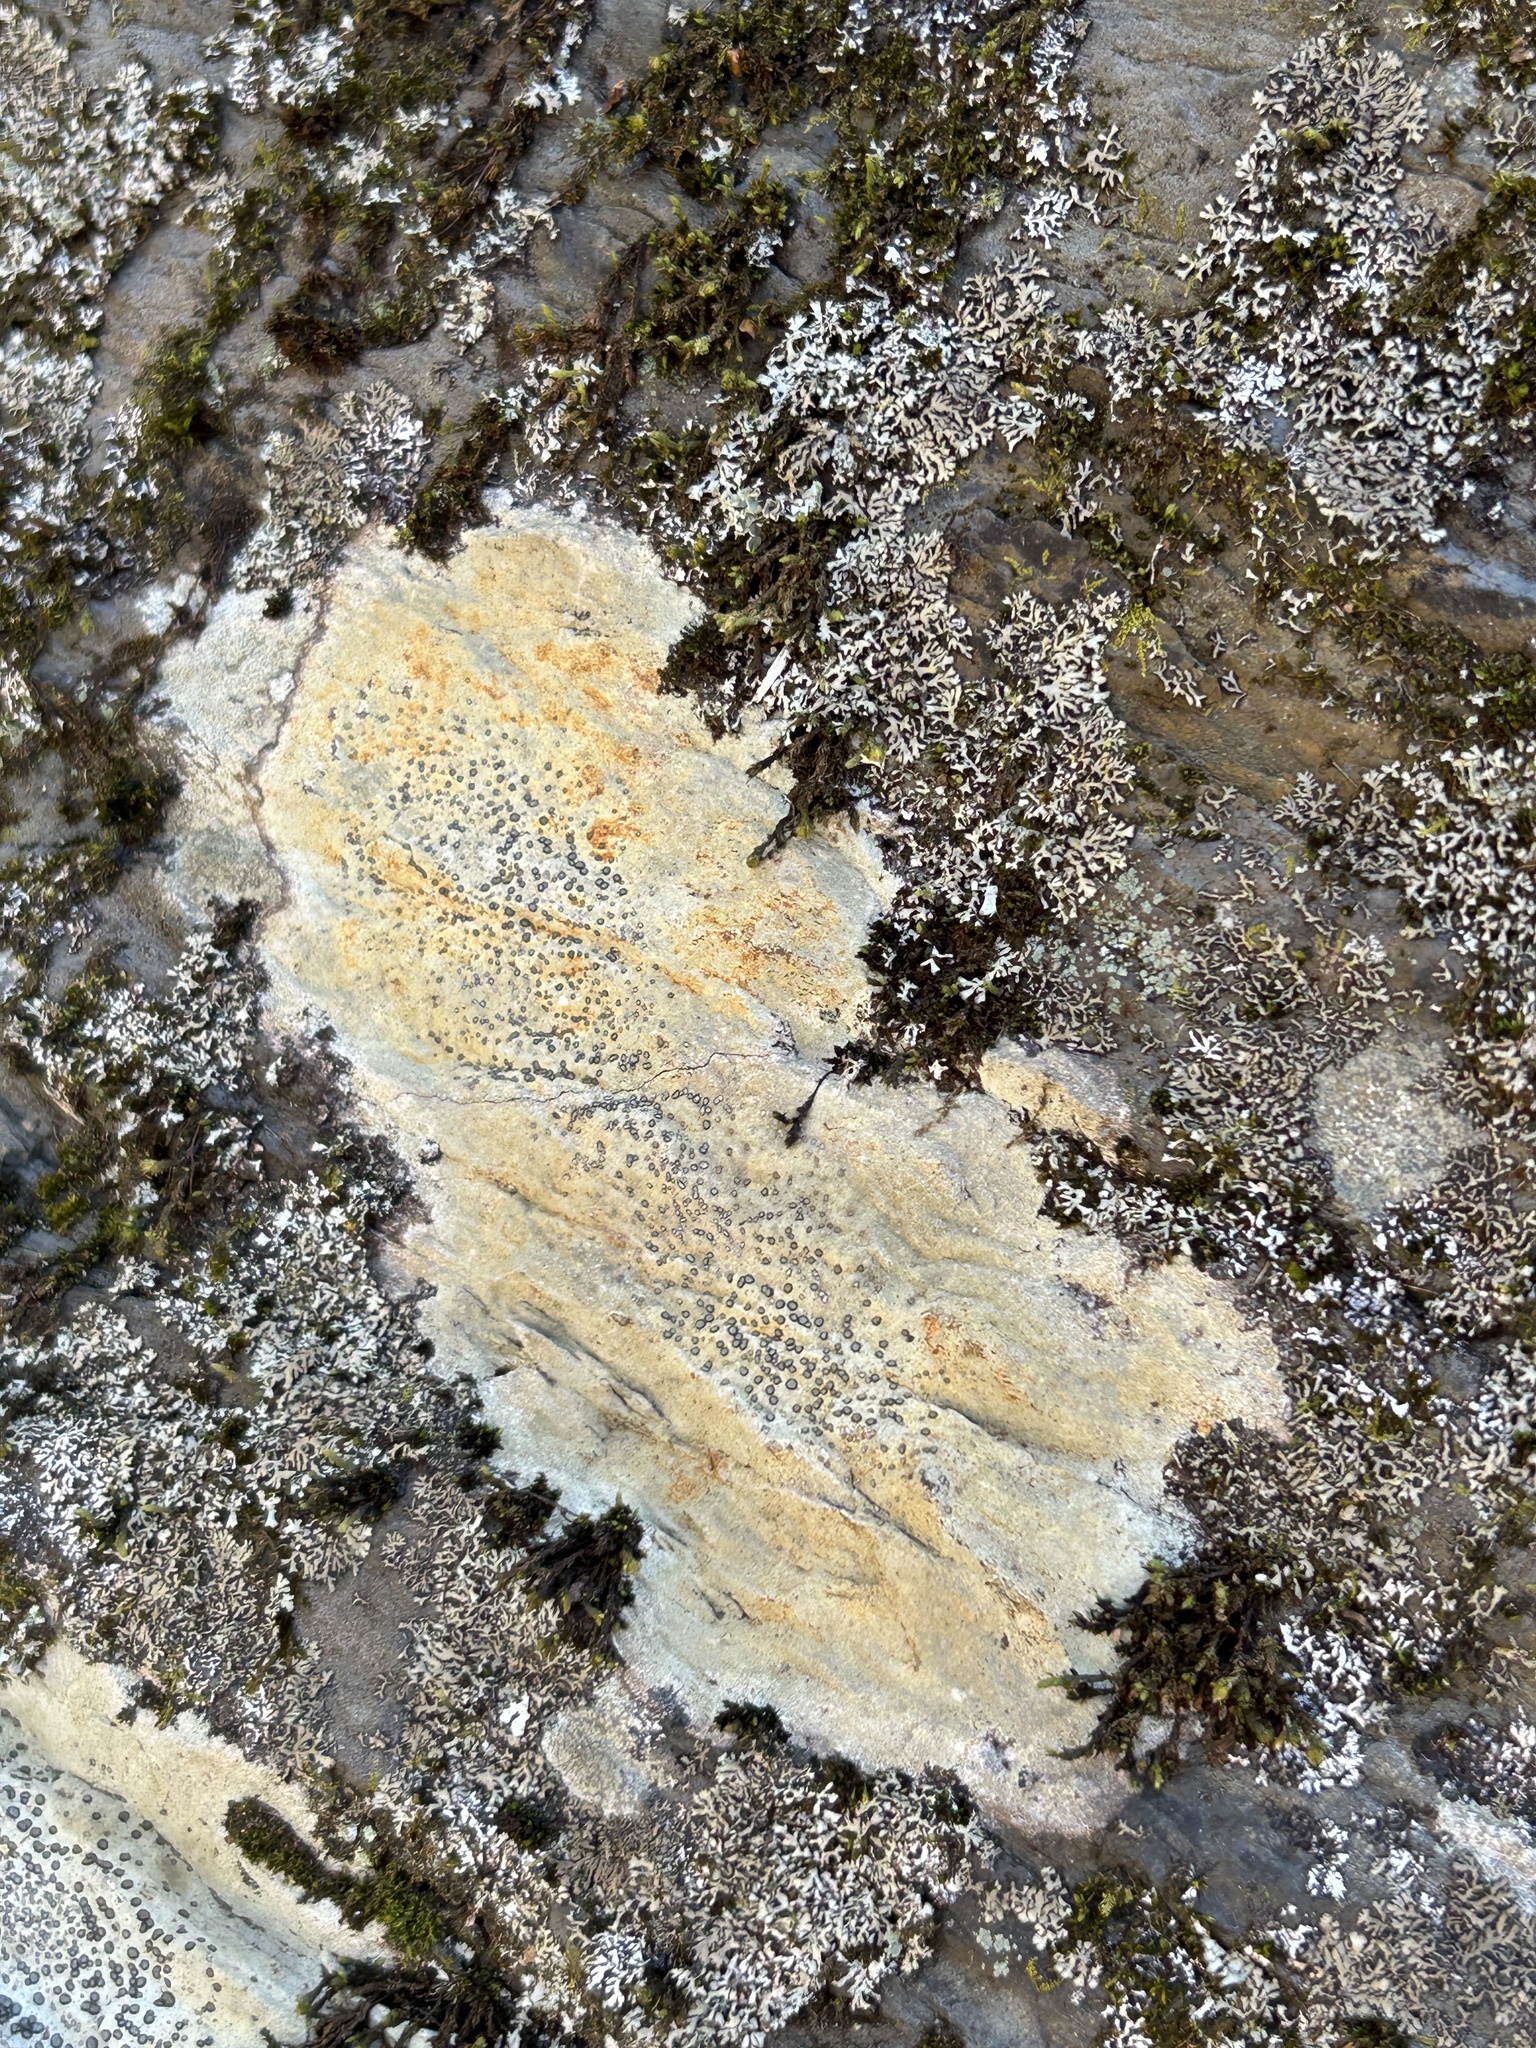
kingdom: Fungi
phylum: Ascomycota
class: Lecanoromycetes
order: Lecideales
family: Lecideaceae
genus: Porpidia
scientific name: Porpidia albocaerulescens
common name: Smokey-eyed boulder lichen
